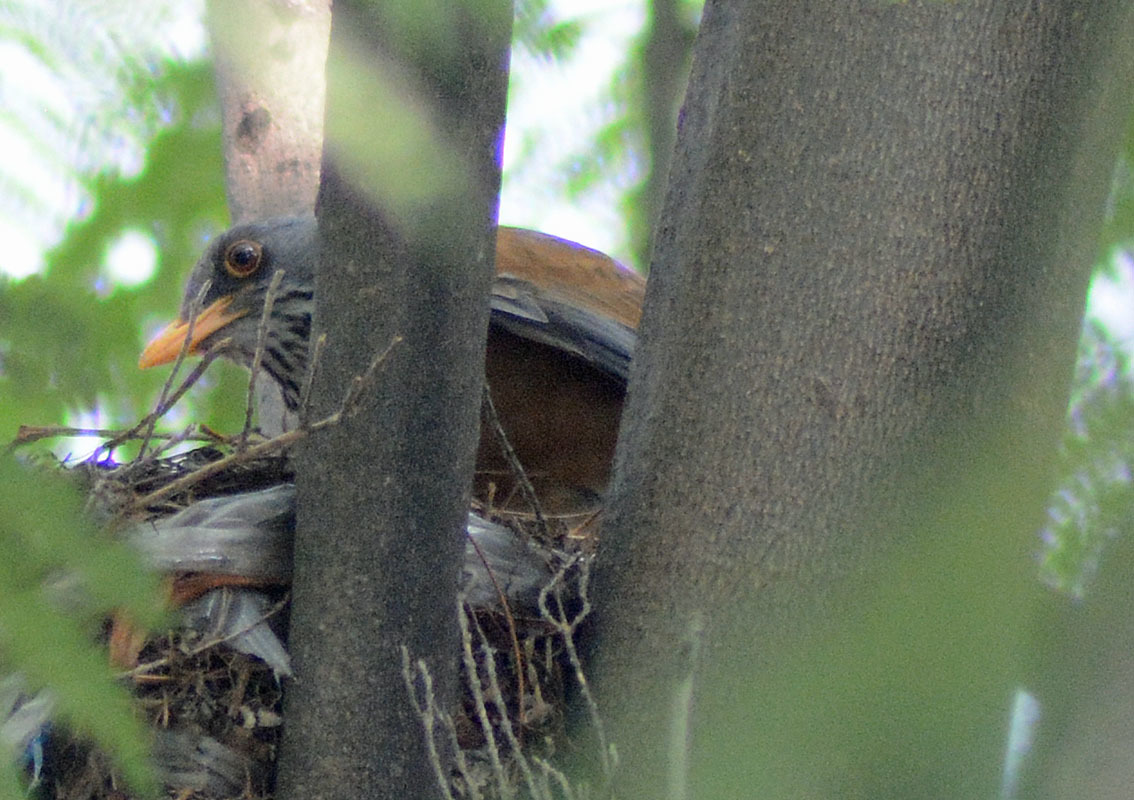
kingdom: Animalia
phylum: Chordata
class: Aves
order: Passeriformes
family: Turdidae
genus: Turdus
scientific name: Turdus rufopalliatus
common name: Rufous-backed robin
